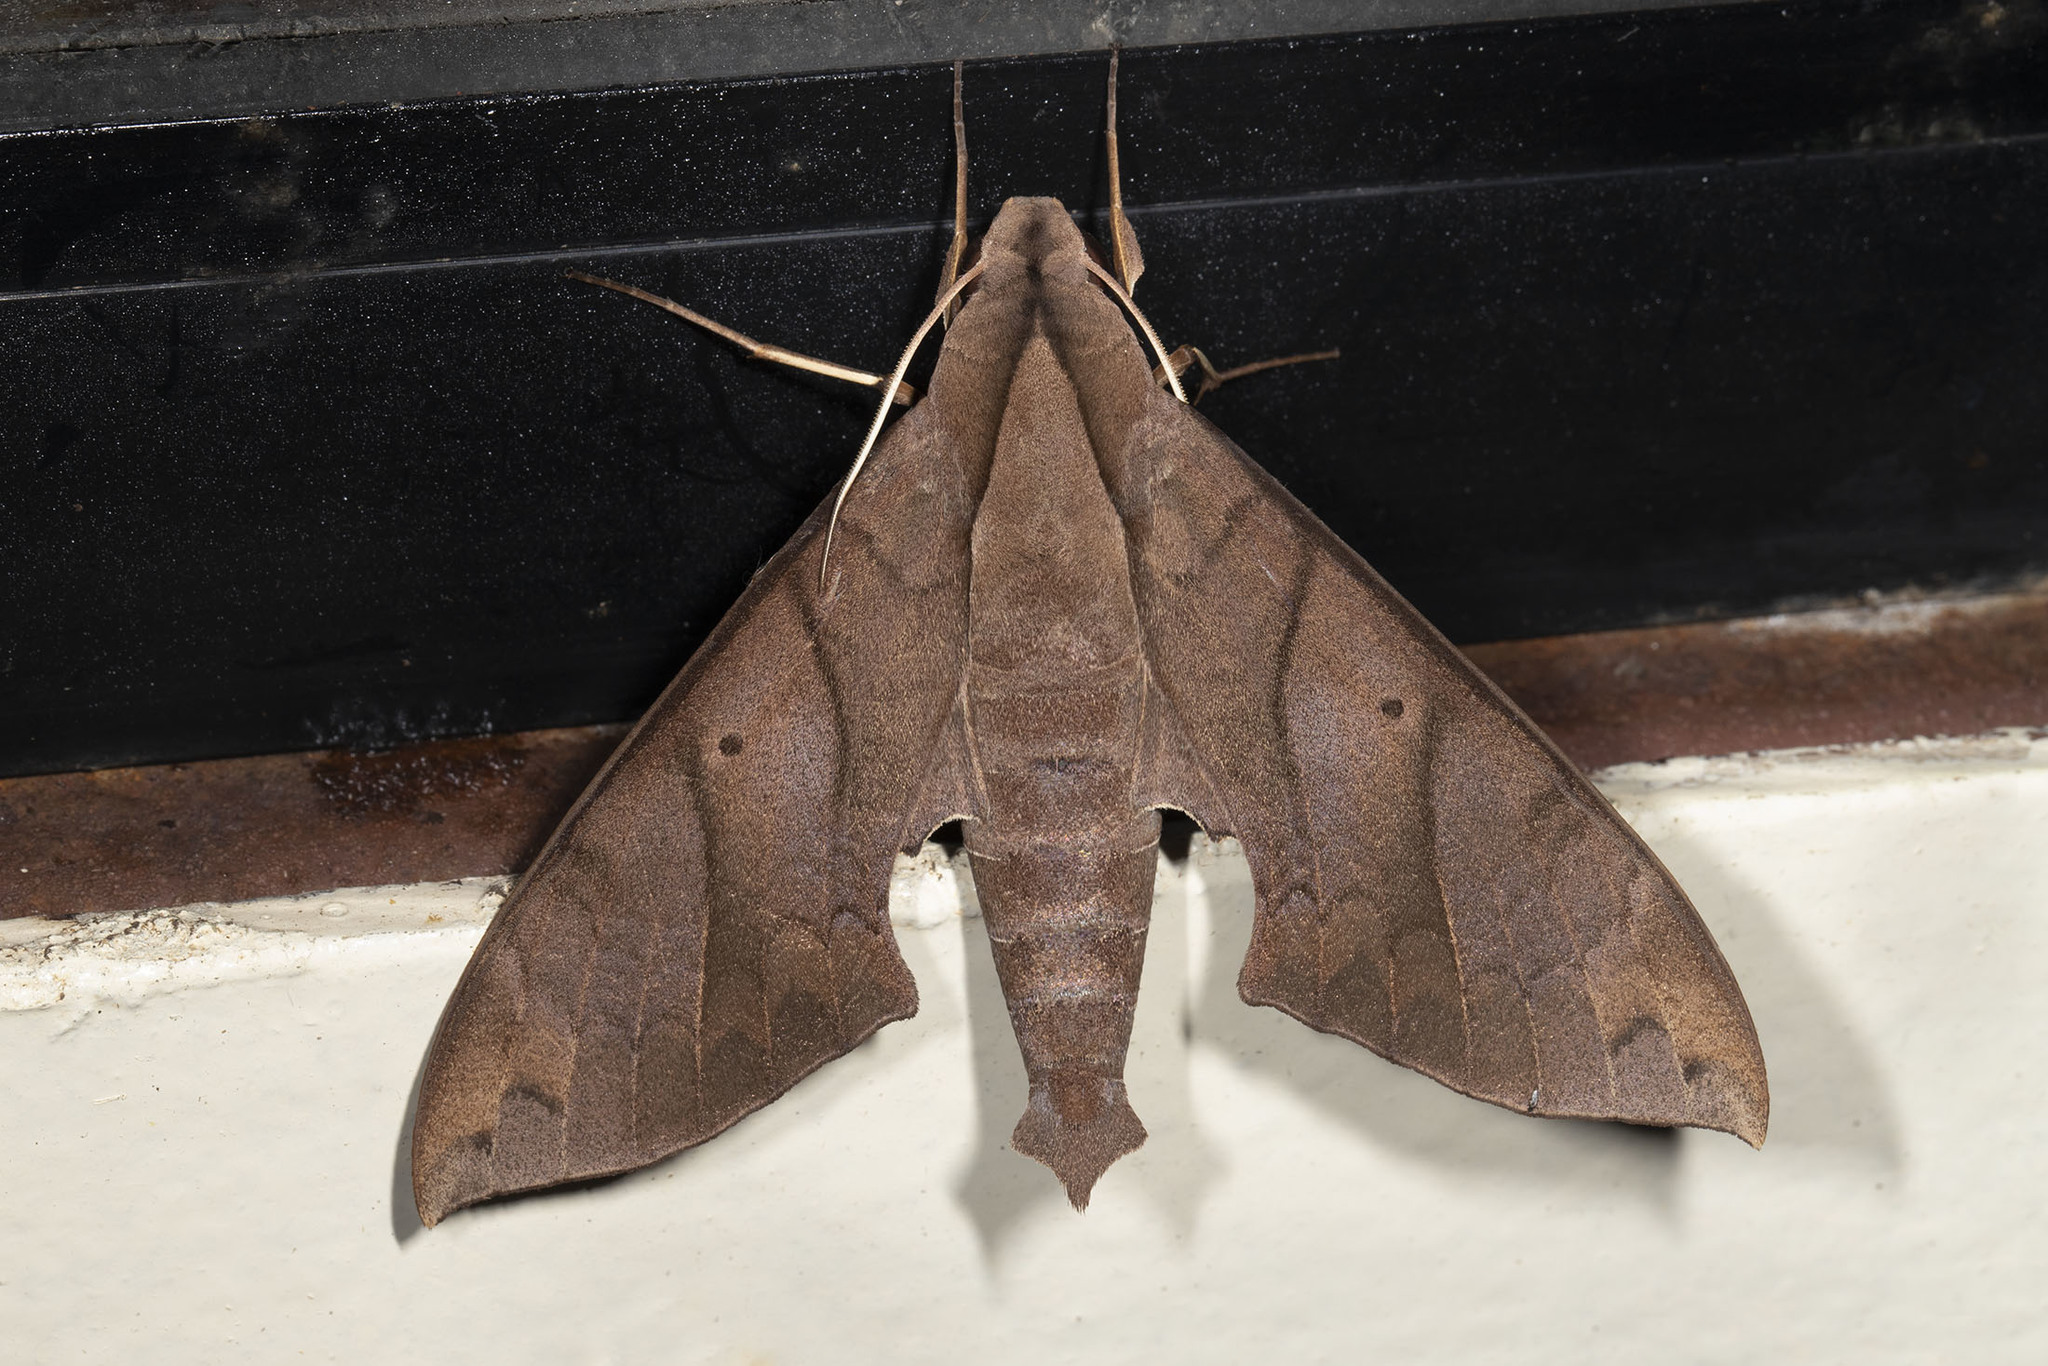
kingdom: Animalia
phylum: Arthropoda
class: Insecta
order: Lepidoptera
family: Sphingidae
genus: Pachylia
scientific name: Pachylia darceta
